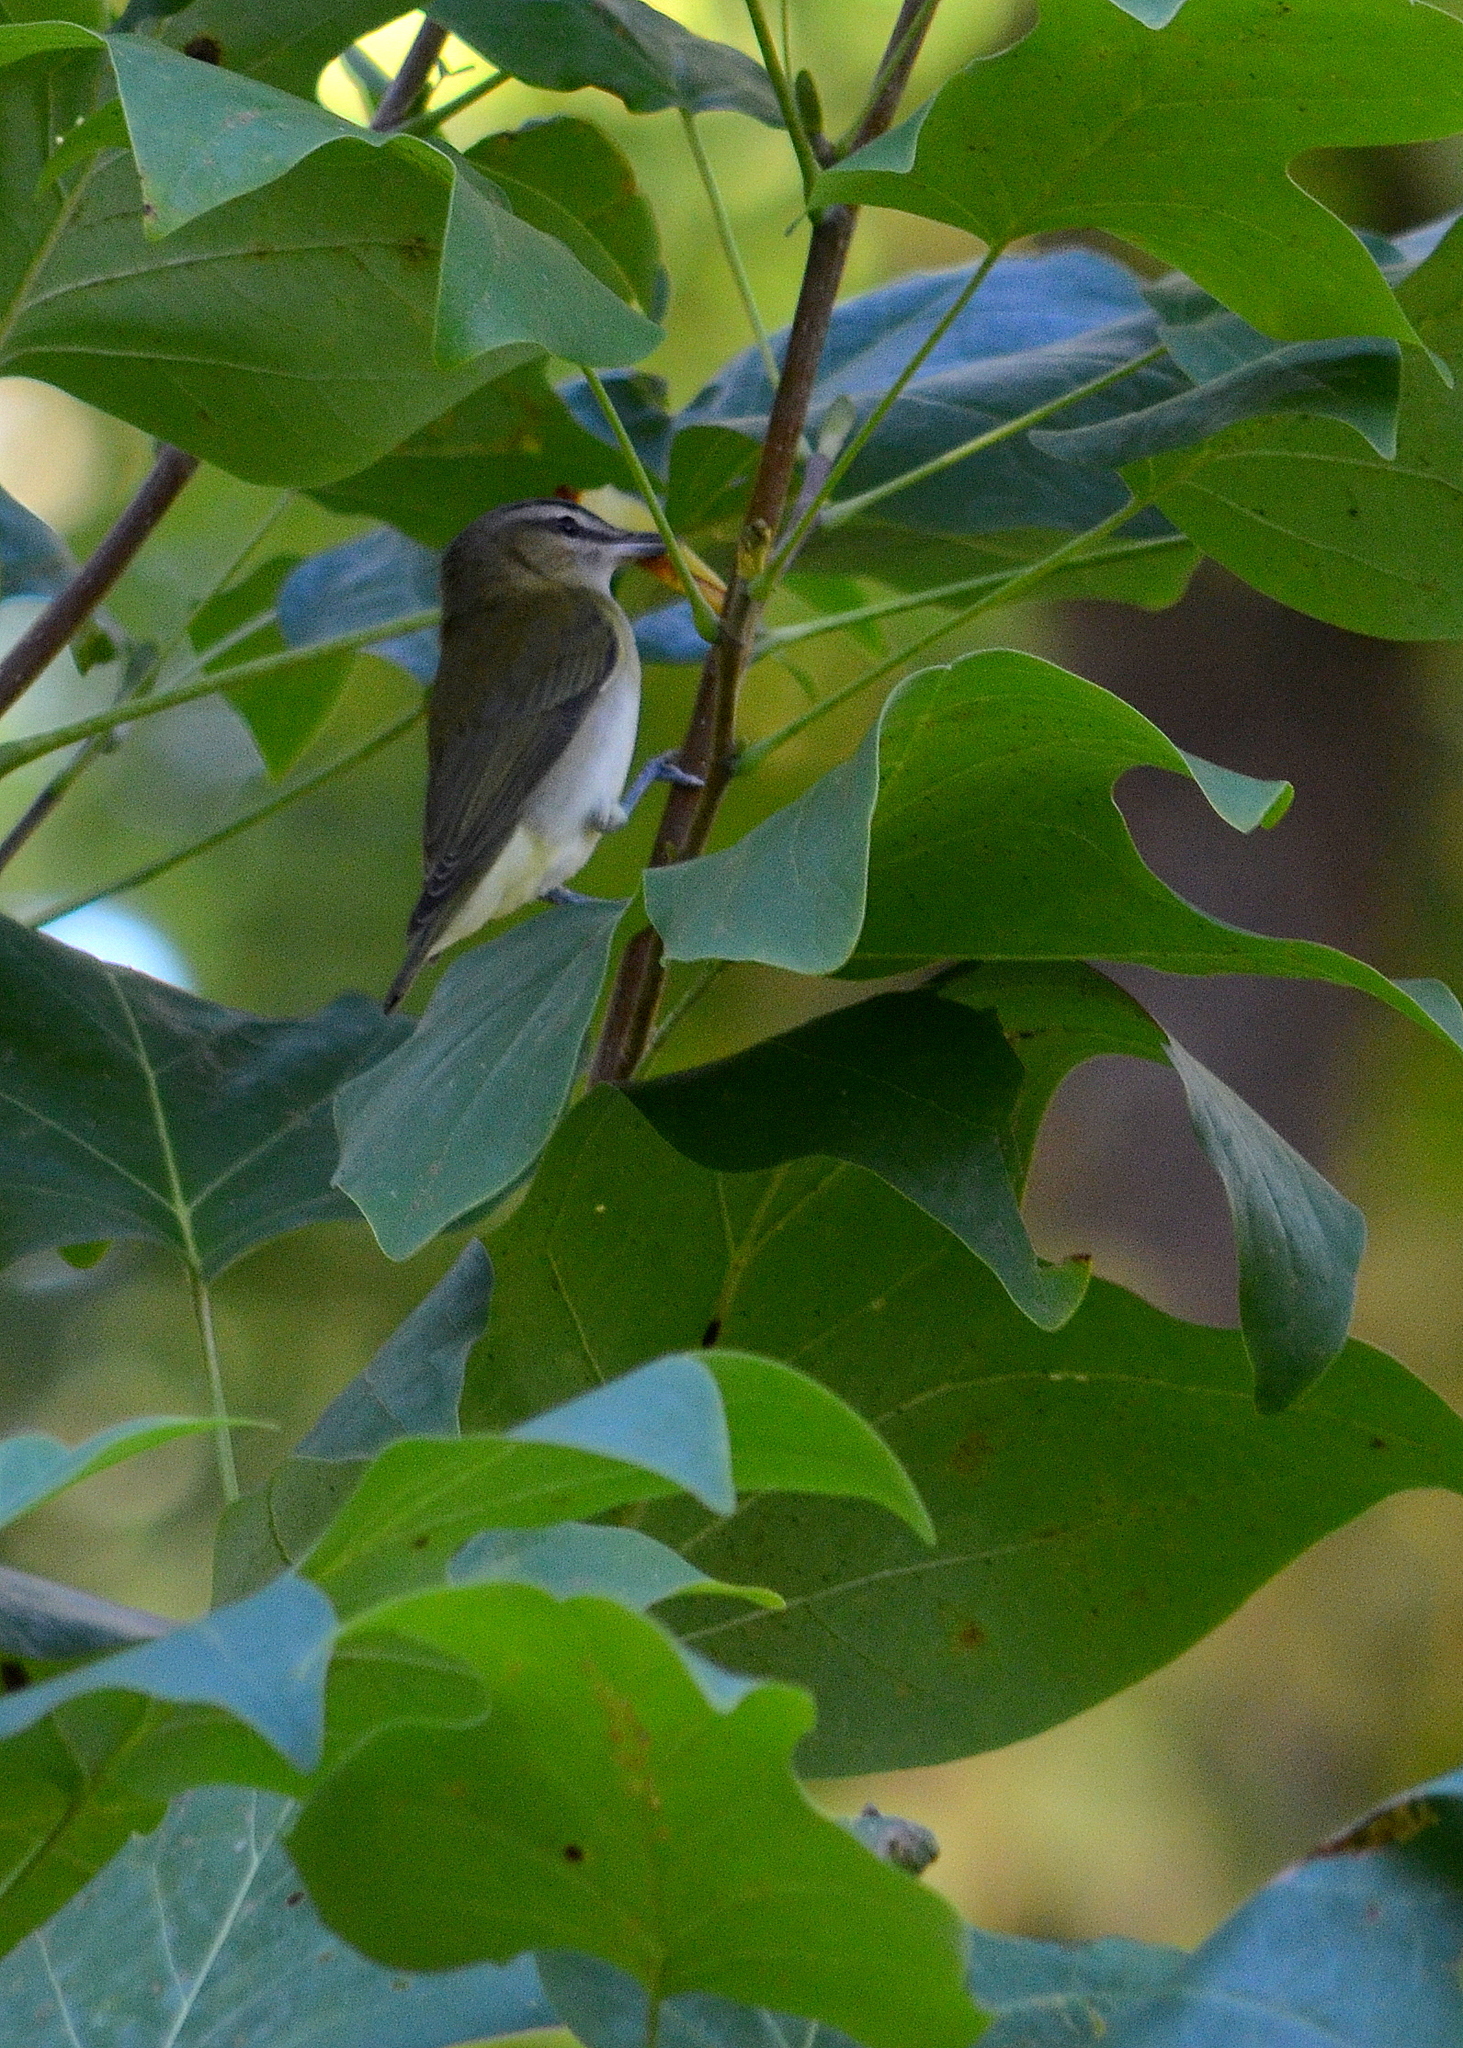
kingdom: Animalia
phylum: Chordata
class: Aves
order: Passeriformes
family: Vireonidae
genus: Vireo
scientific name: Vireo olivaceus
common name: Red-eyed vireo
